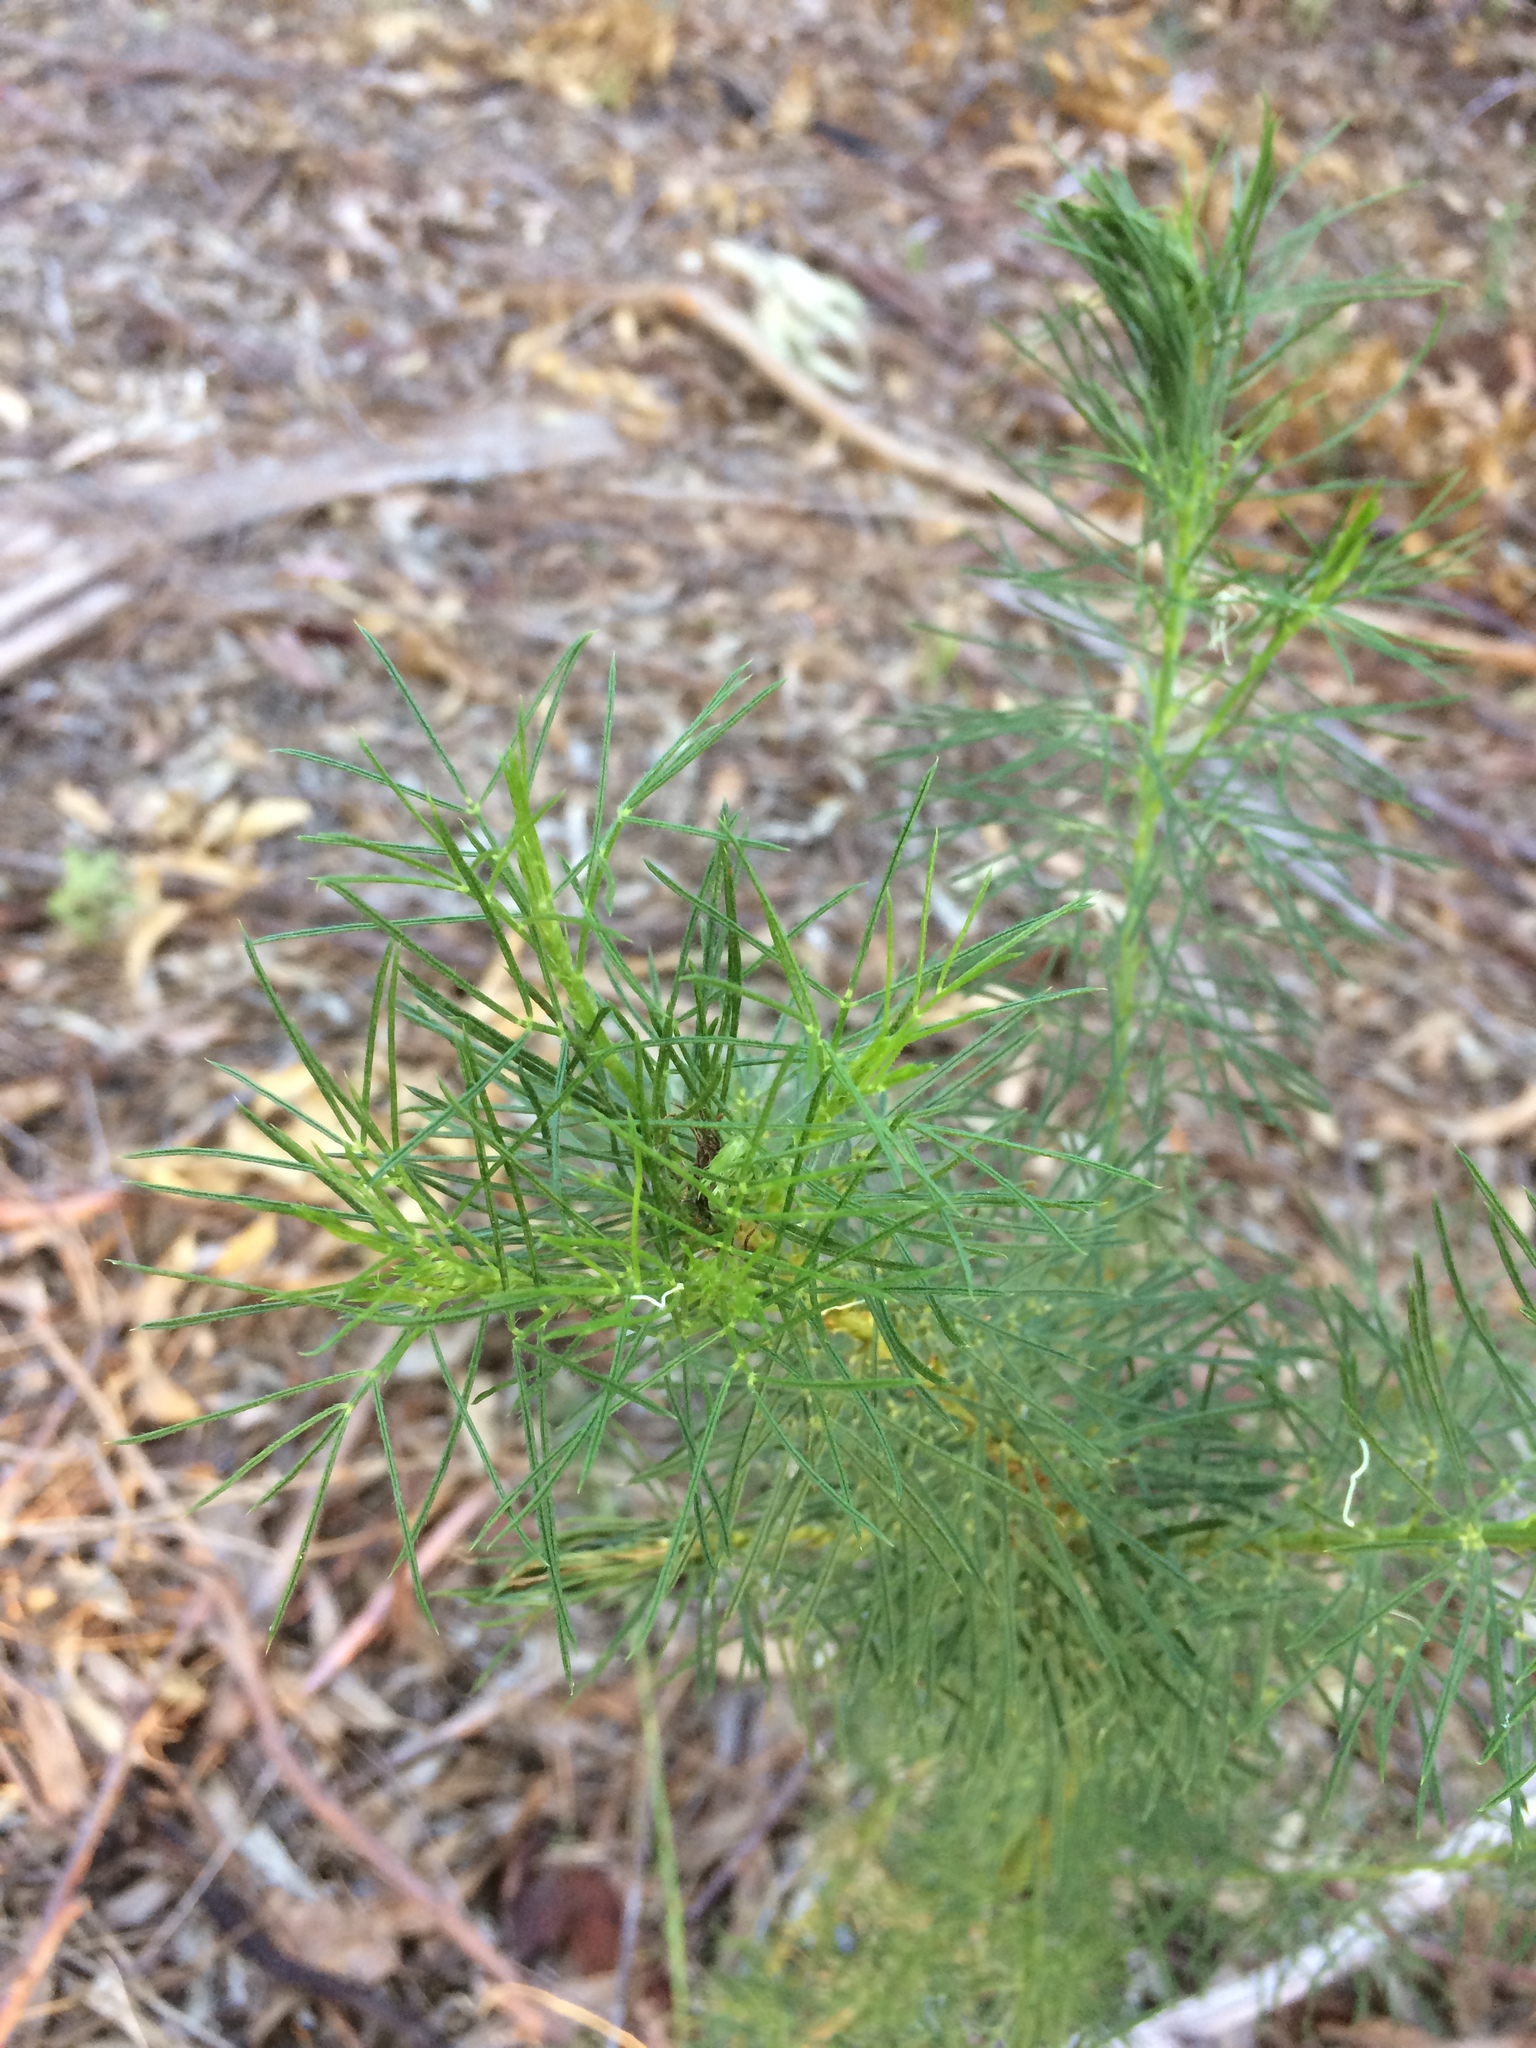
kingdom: Plantae
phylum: Tracheophyta
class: Magnoliopsida
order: Fabales
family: Fabaceae
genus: Psoralea
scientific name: Psoralea pinnata
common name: African scurfpea
